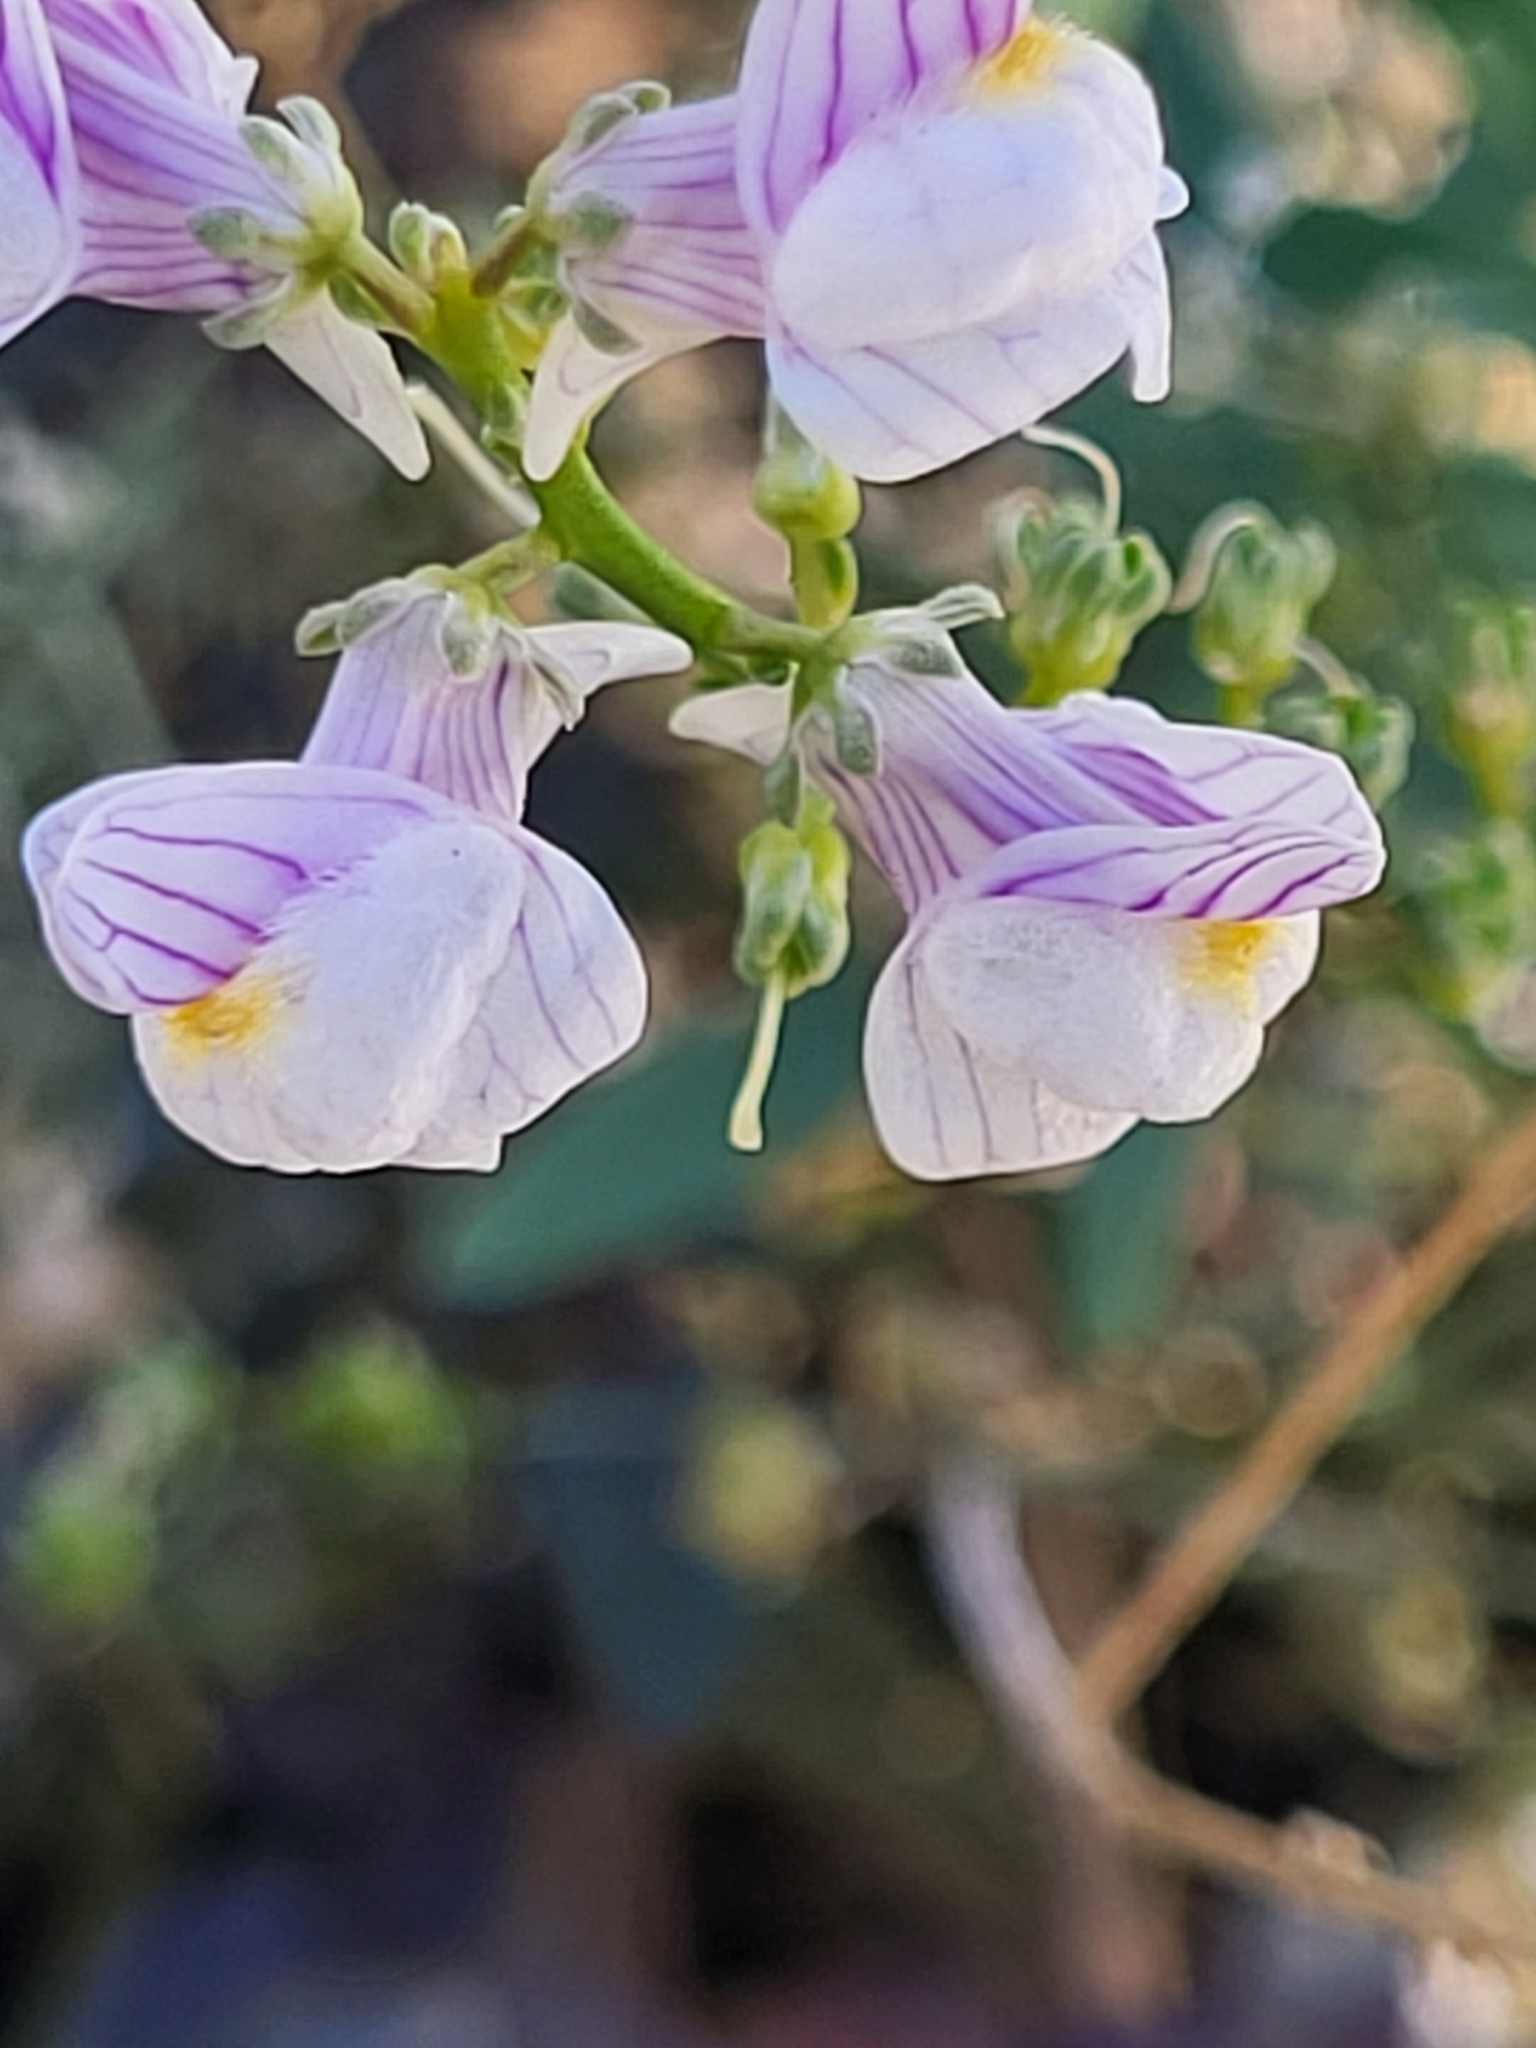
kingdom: Plantae
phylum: Tracheophyta
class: Magnoliopsida
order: Lamiales
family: Plantaginaceae
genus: Linaria
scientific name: Linaria microsepala
